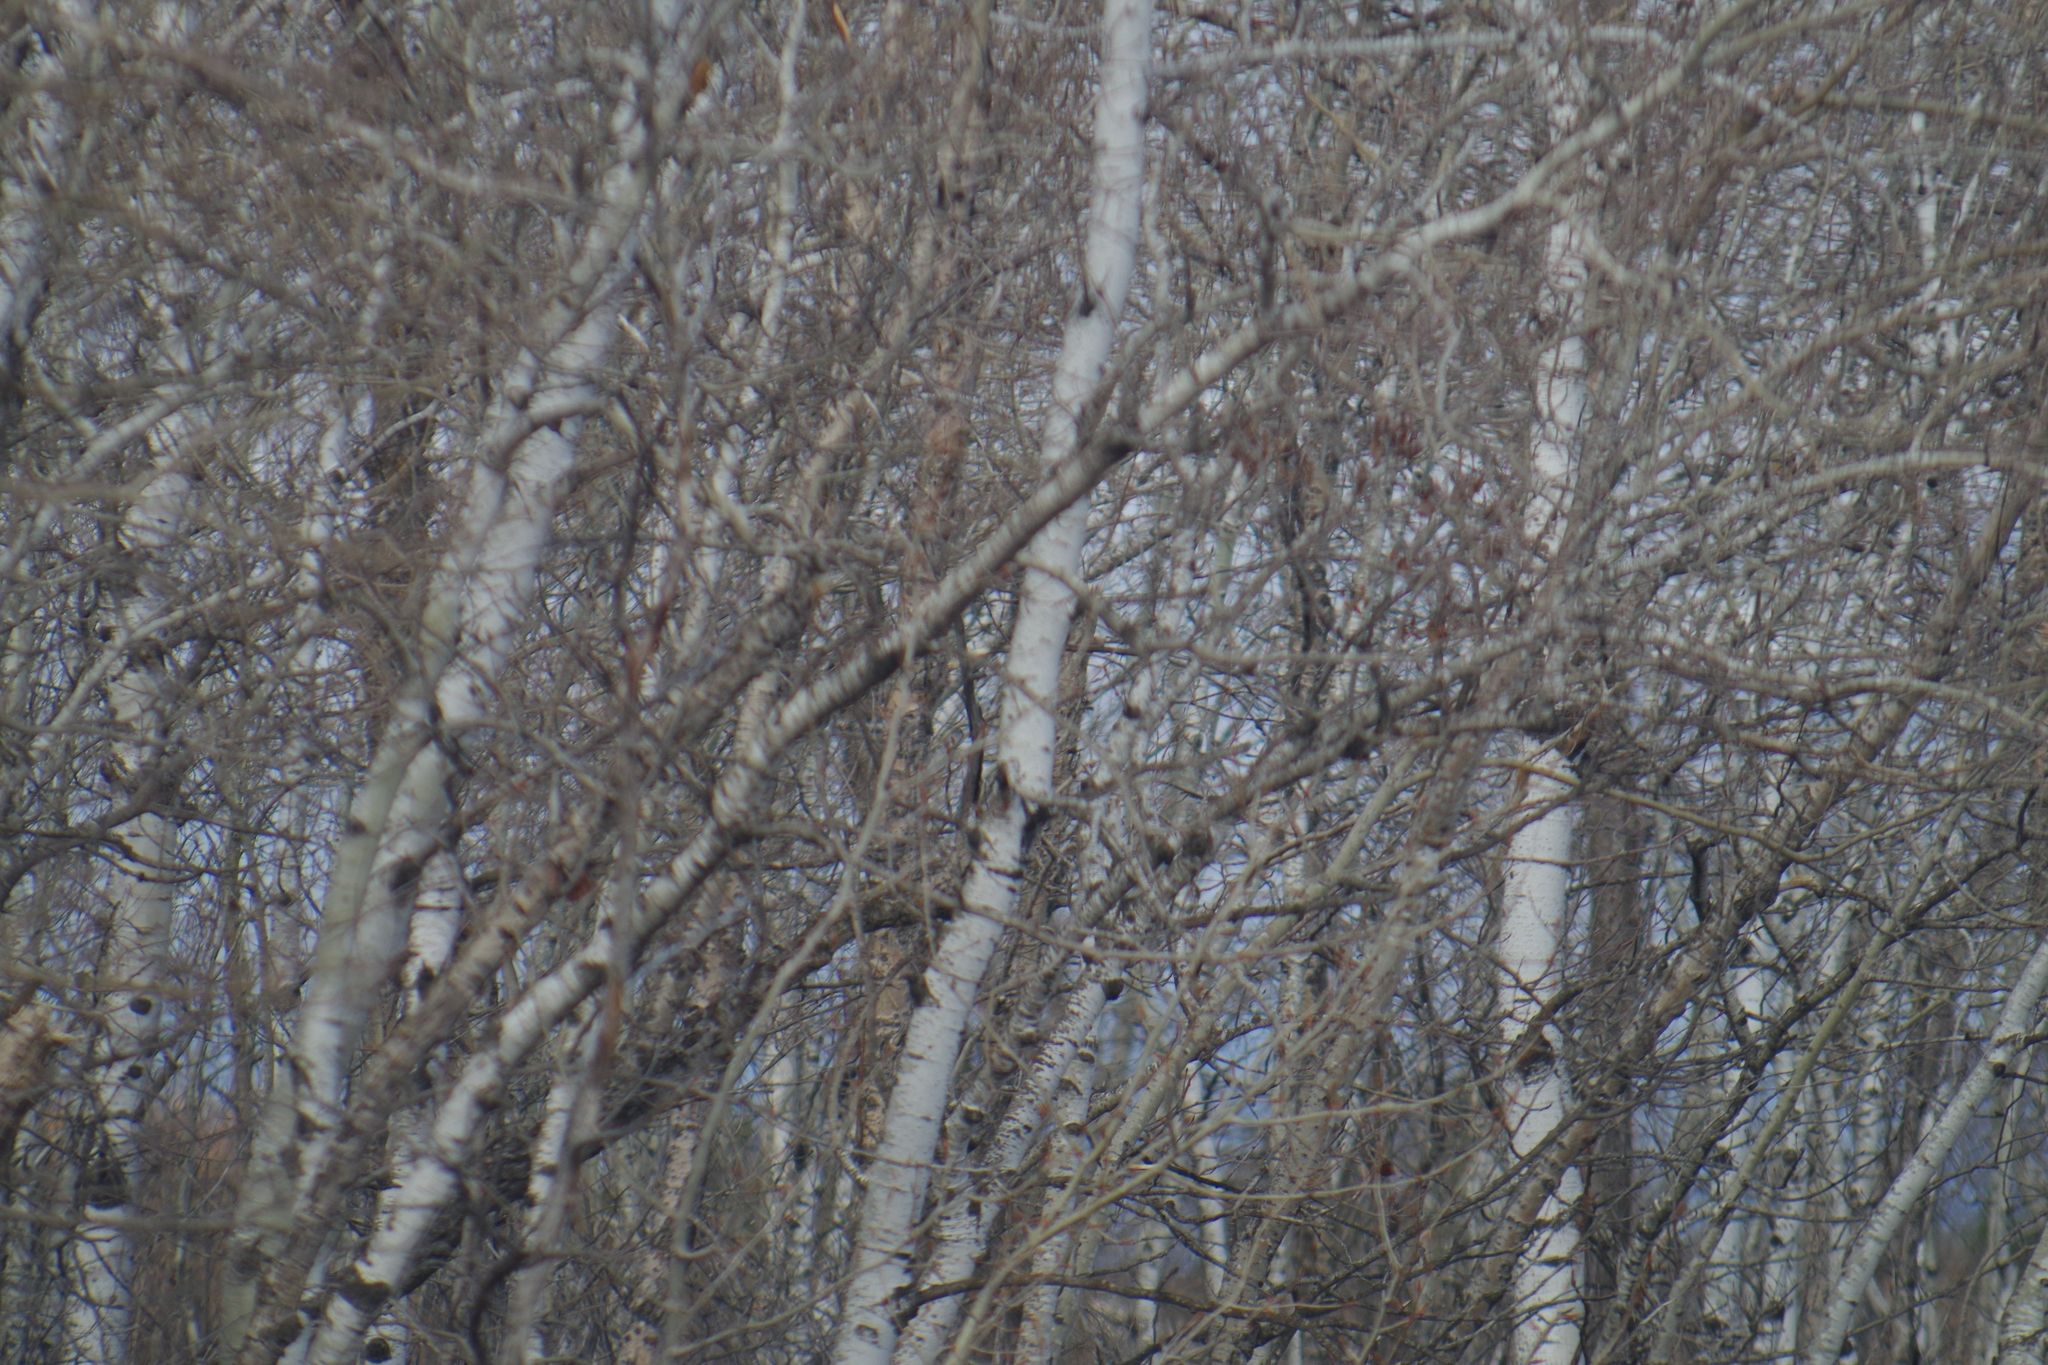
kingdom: Plantae
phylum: Tracheophyta
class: Magnoliopsida
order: Malpighiales
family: Salicaceae
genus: Populus
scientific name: Populus tremuloides
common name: Quaking aspen
